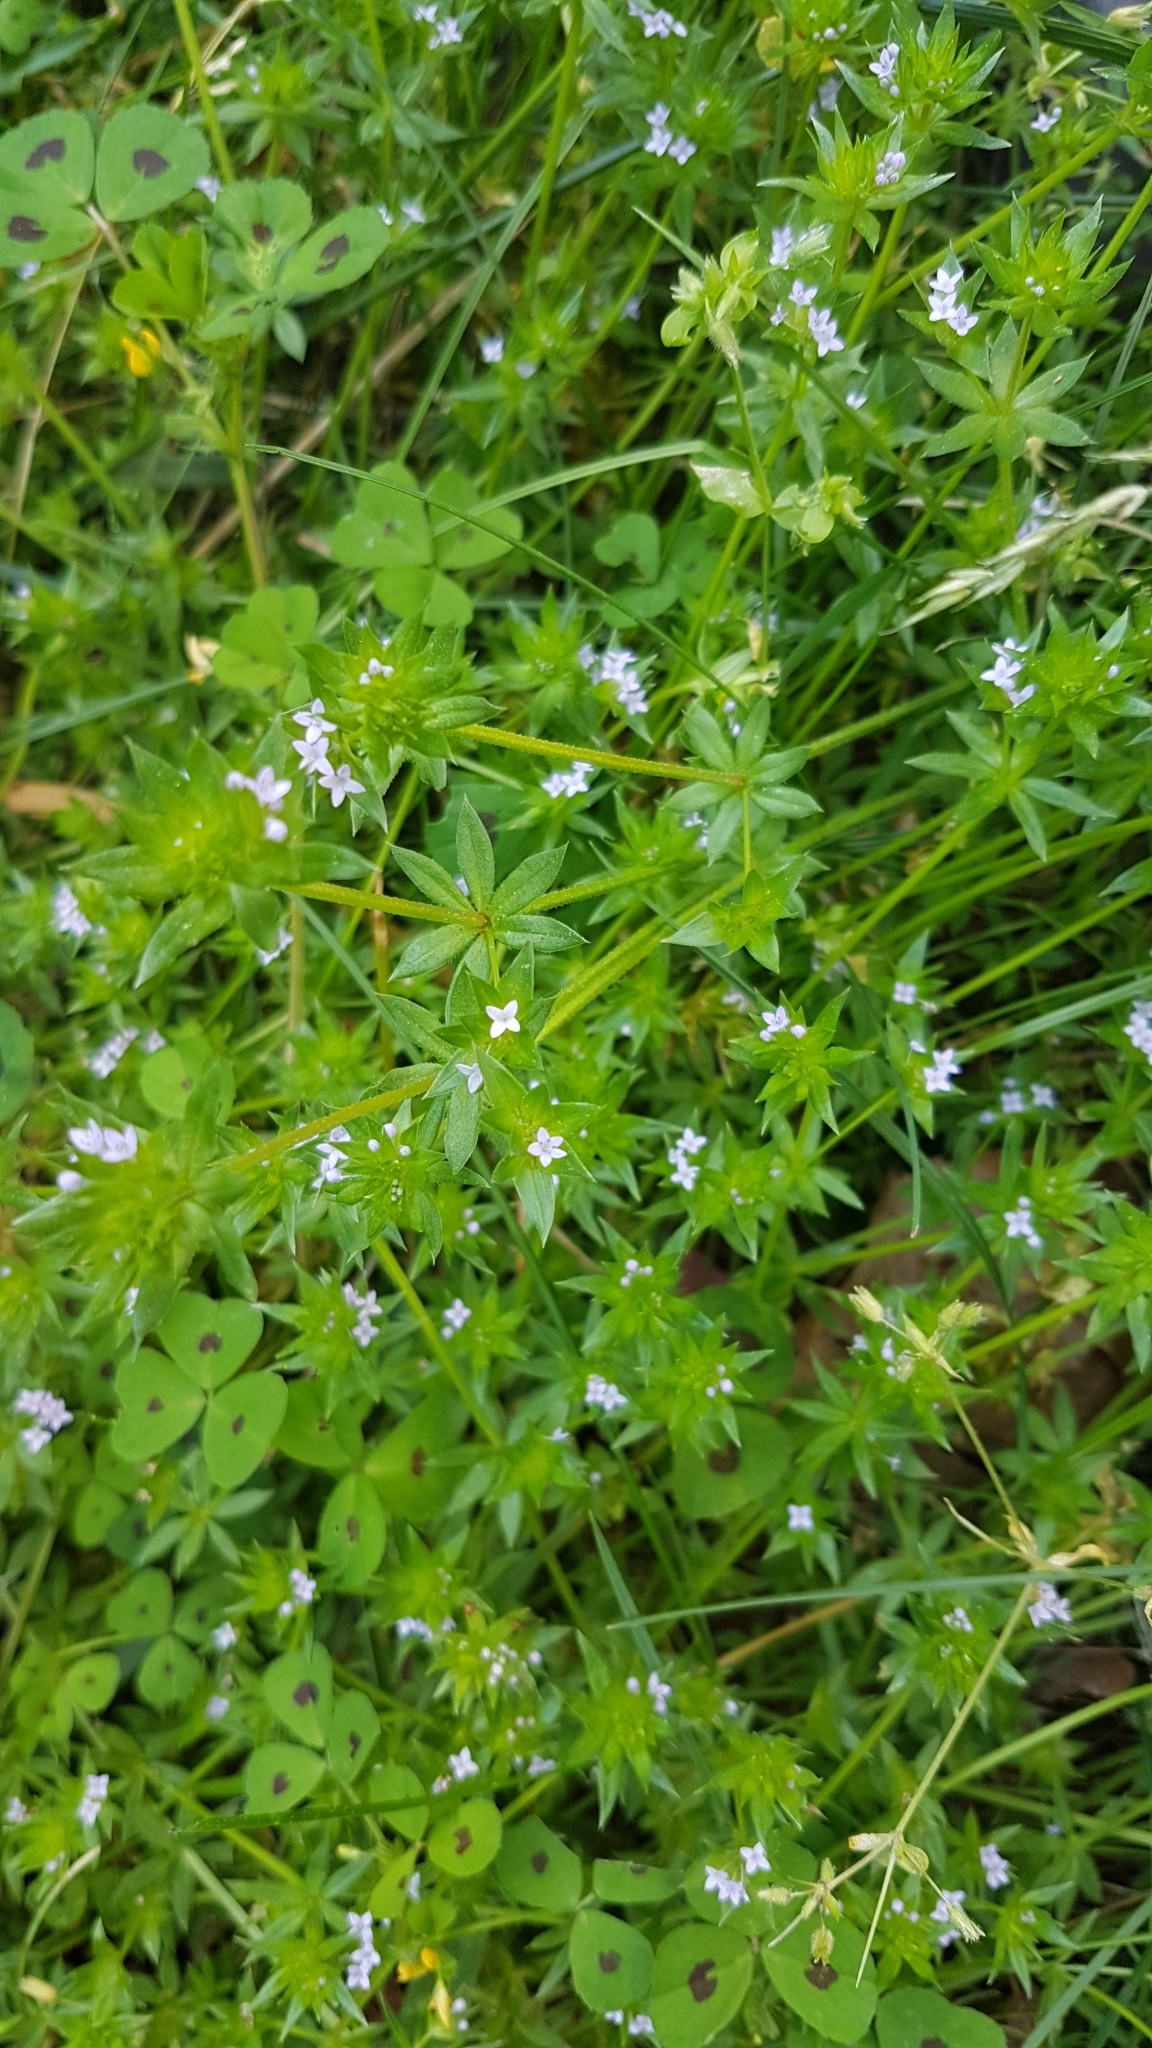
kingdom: Plantae
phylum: Tracheophyta
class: Magnoliopsida
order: Gentianales
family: Rubiaceae
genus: Sherardia
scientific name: Sherardia arvensis
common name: Field madder
